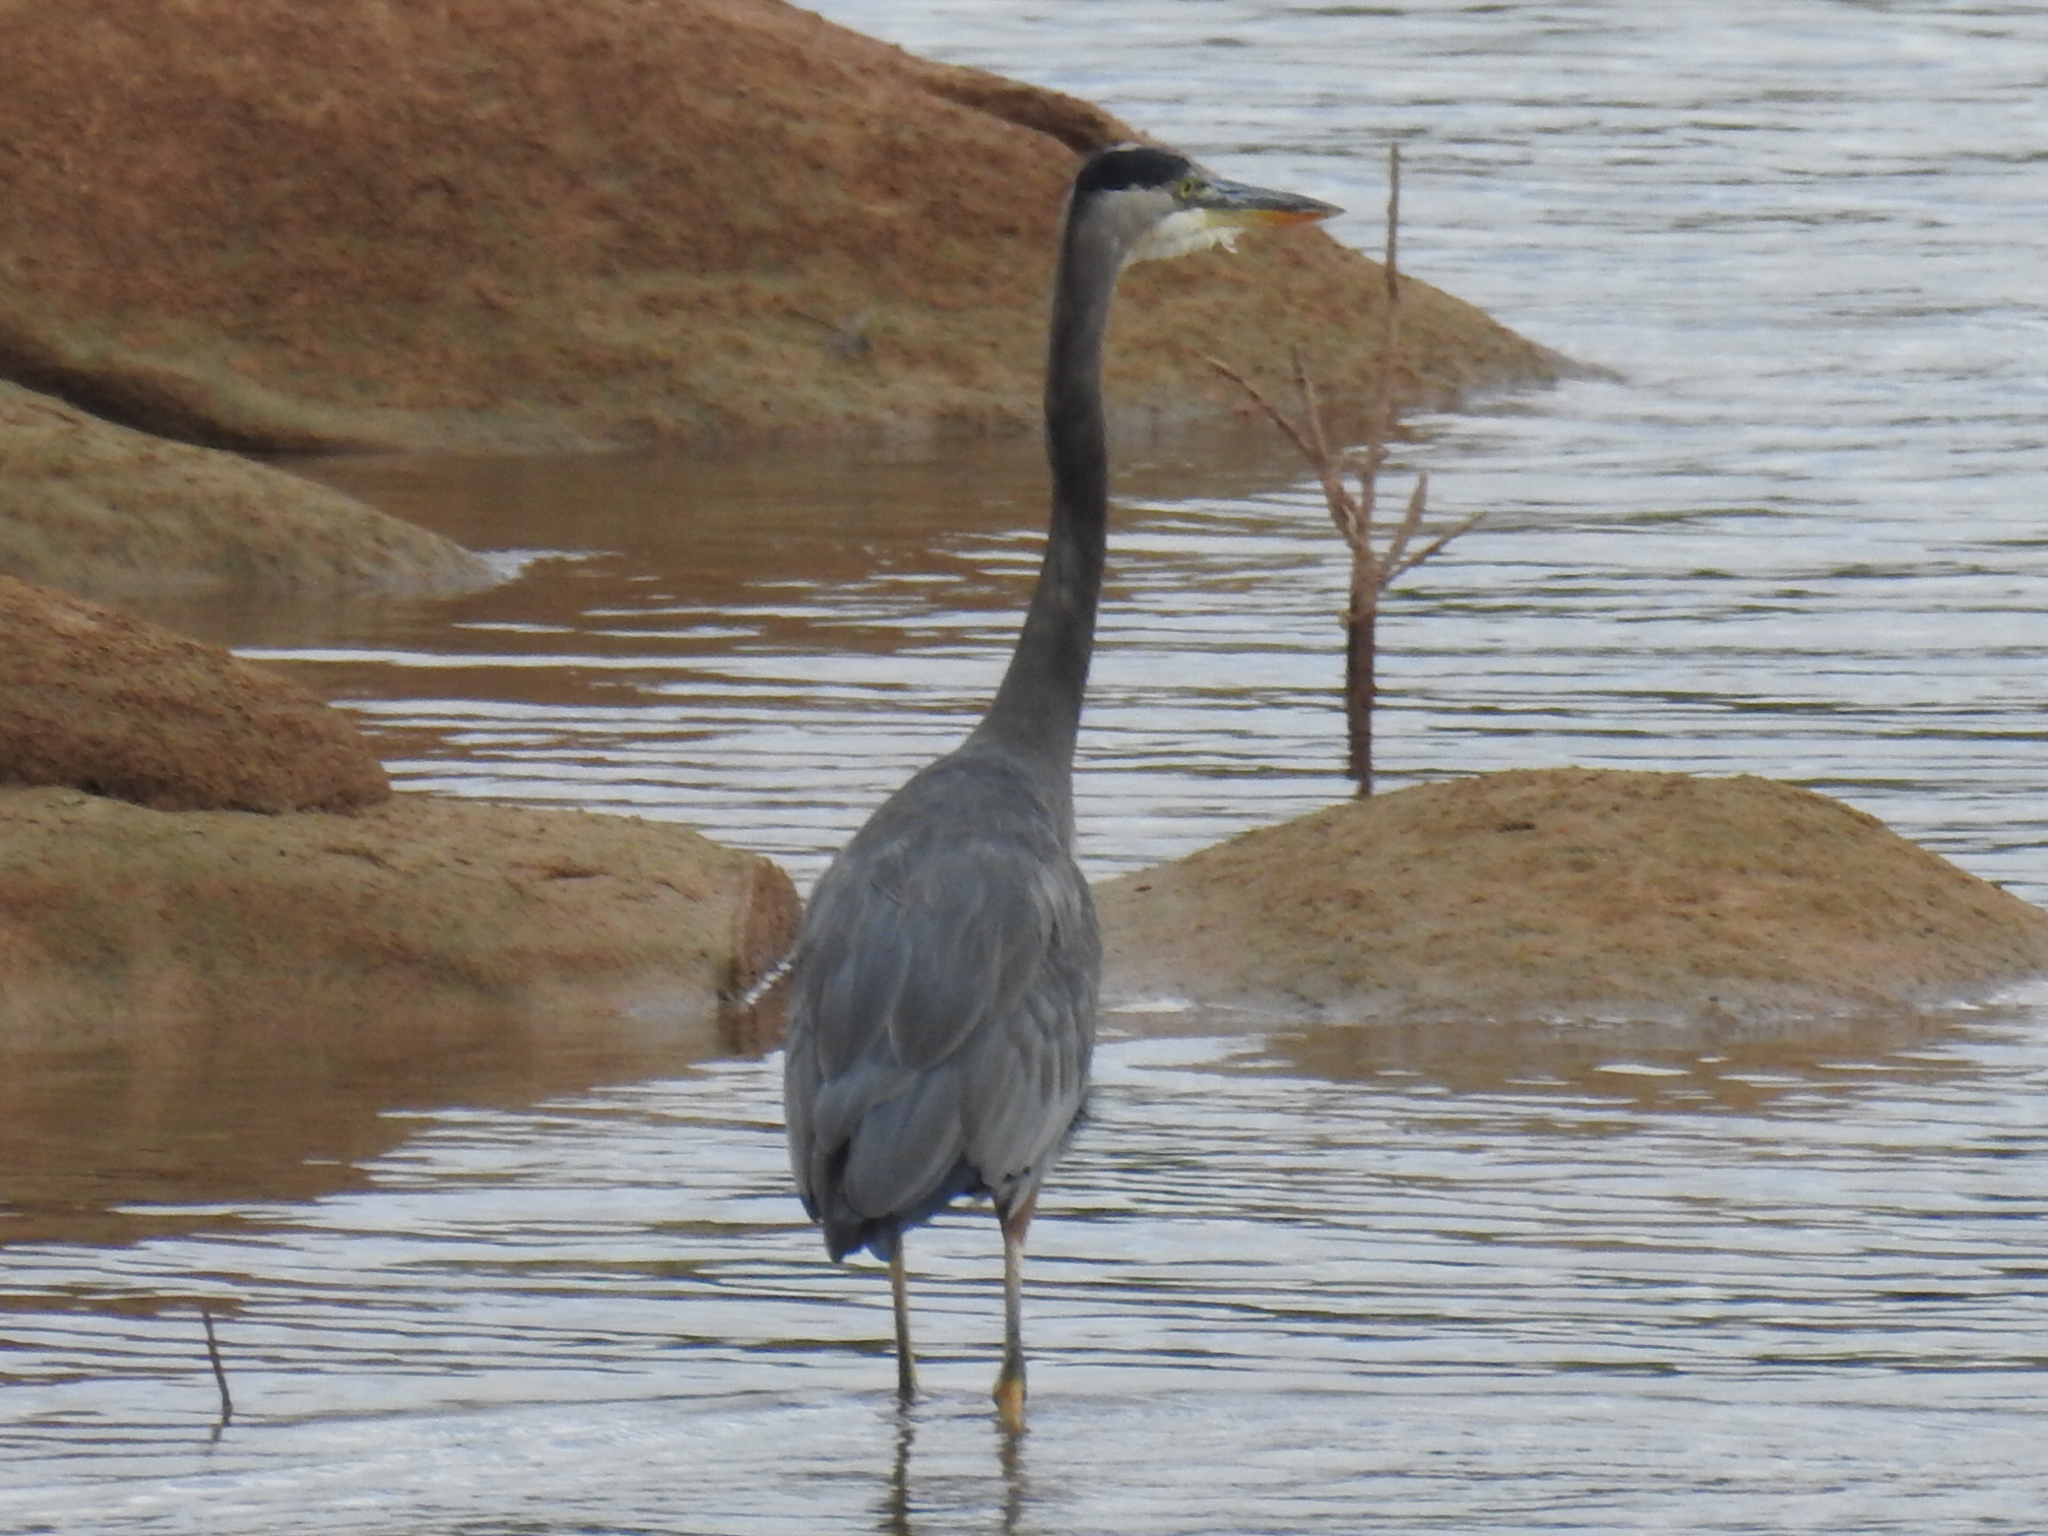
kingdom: Animalia
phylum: Chordata
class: Aves
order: Pelecaniformes
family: Ardeidae
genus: Ardea
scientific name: Ardea herodias
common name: Great blue heron
